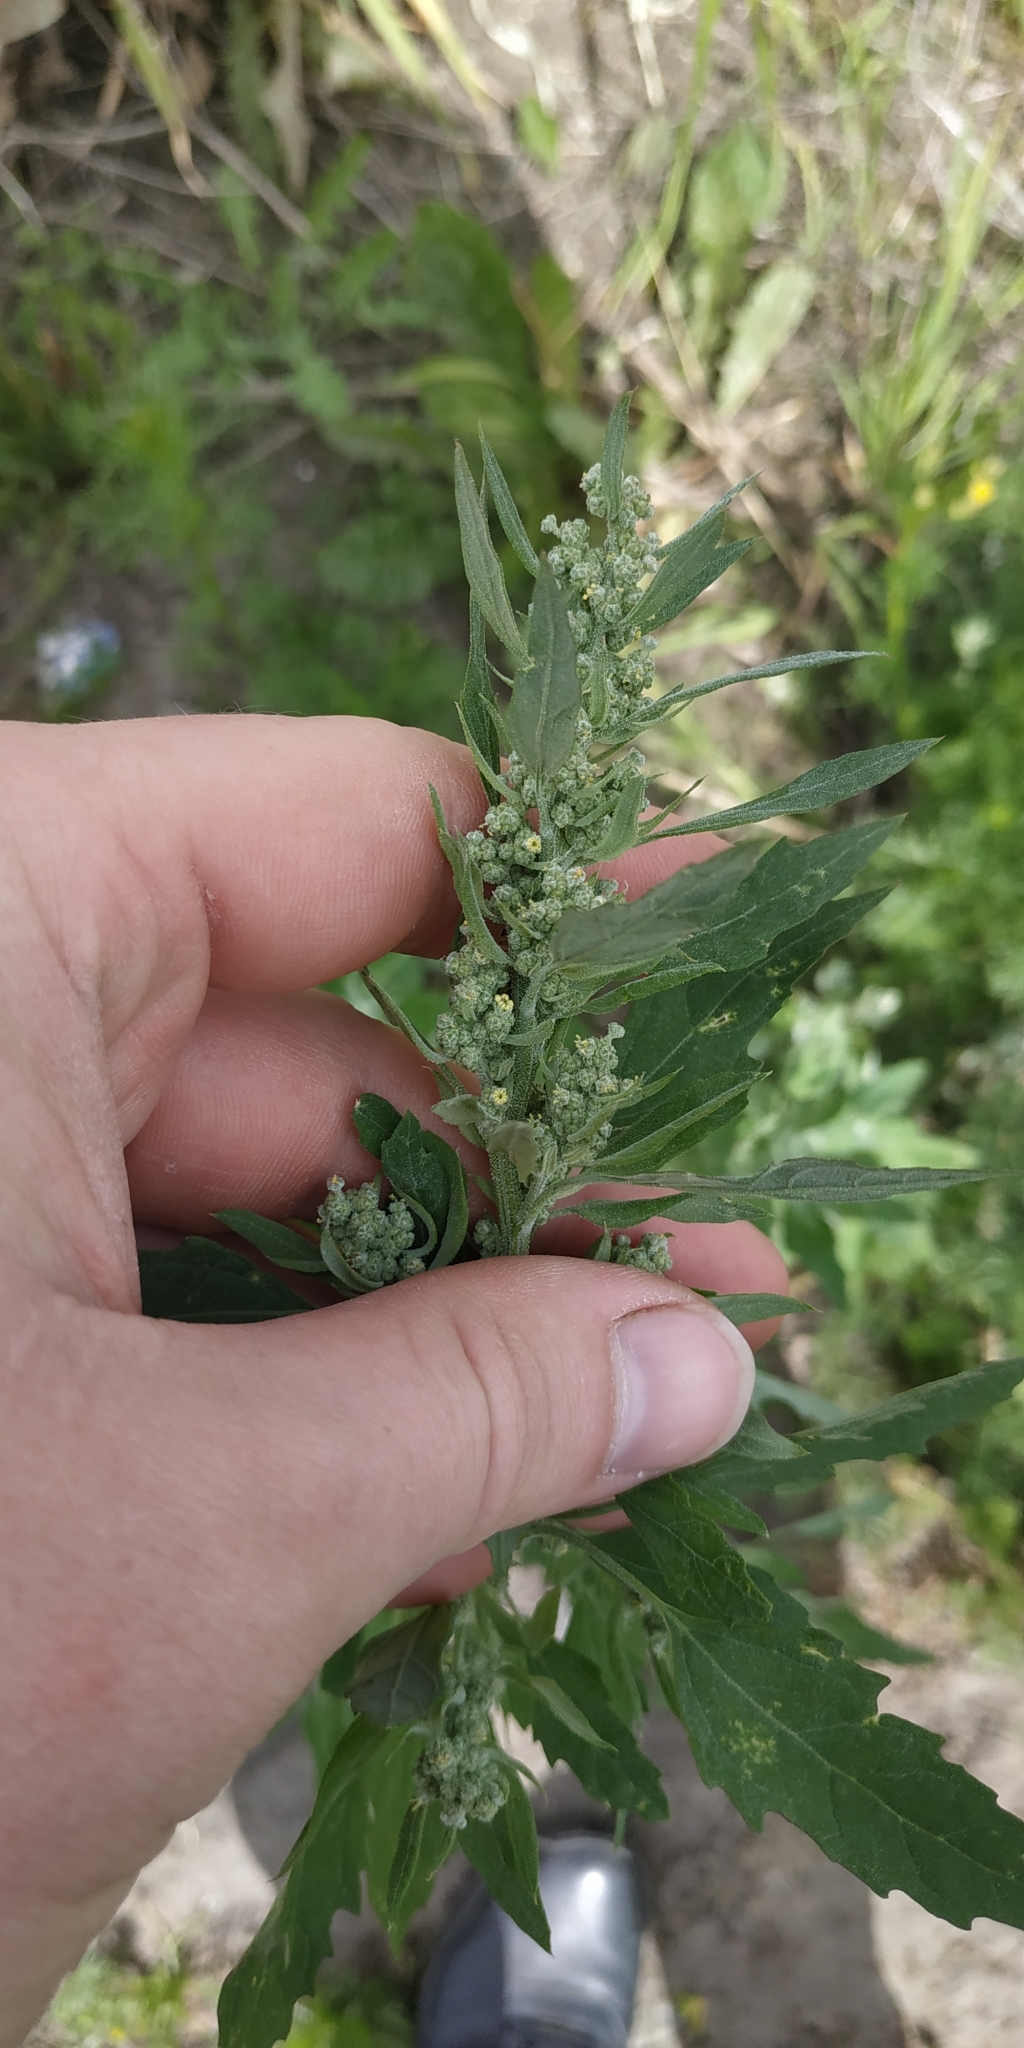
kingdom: Plantae
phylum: Tracheophyta
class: Magnoliopsida
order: Caryophyllales
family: Amaranthaceae
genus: Chenopodium
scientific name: Chenopodium album
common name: Fat-hen
